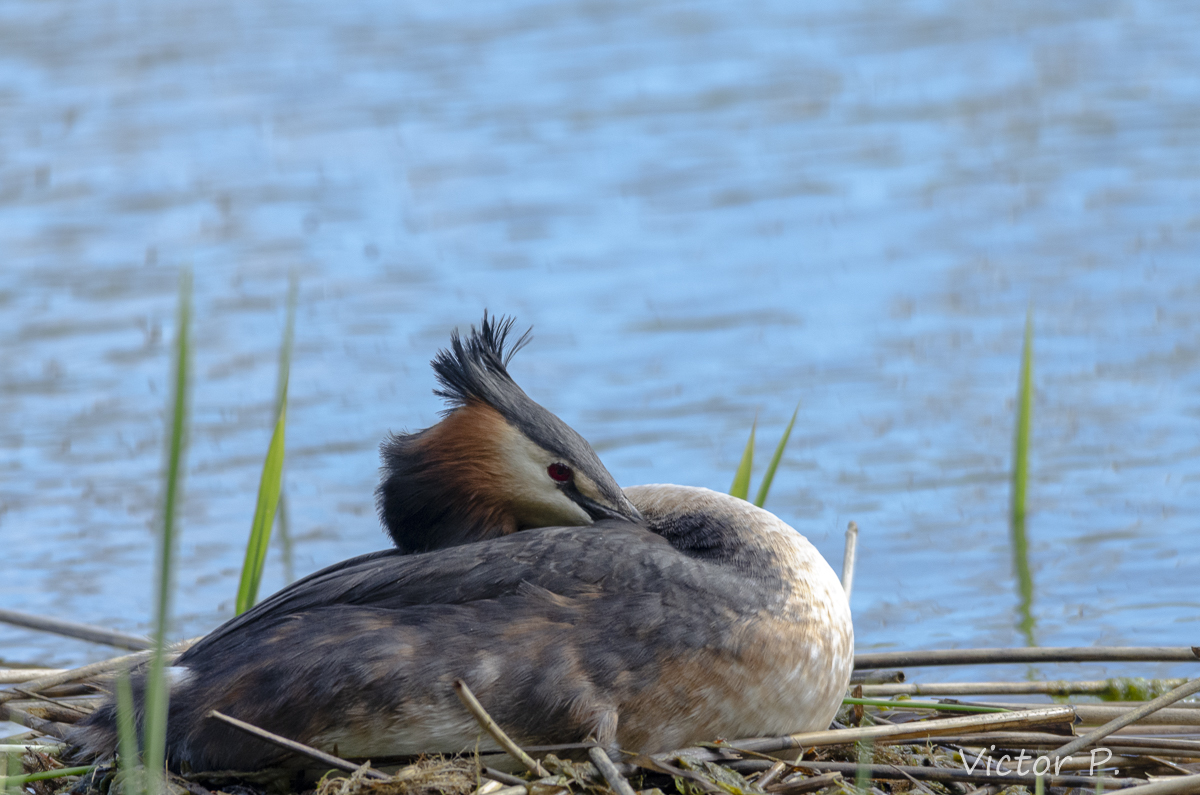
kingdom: Animalia
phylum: Chordata
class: Aves
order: Podicipediformes
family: Podicipedidae
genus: Podiceps
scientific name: Podiceps cristatus
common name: Great crested grebe
